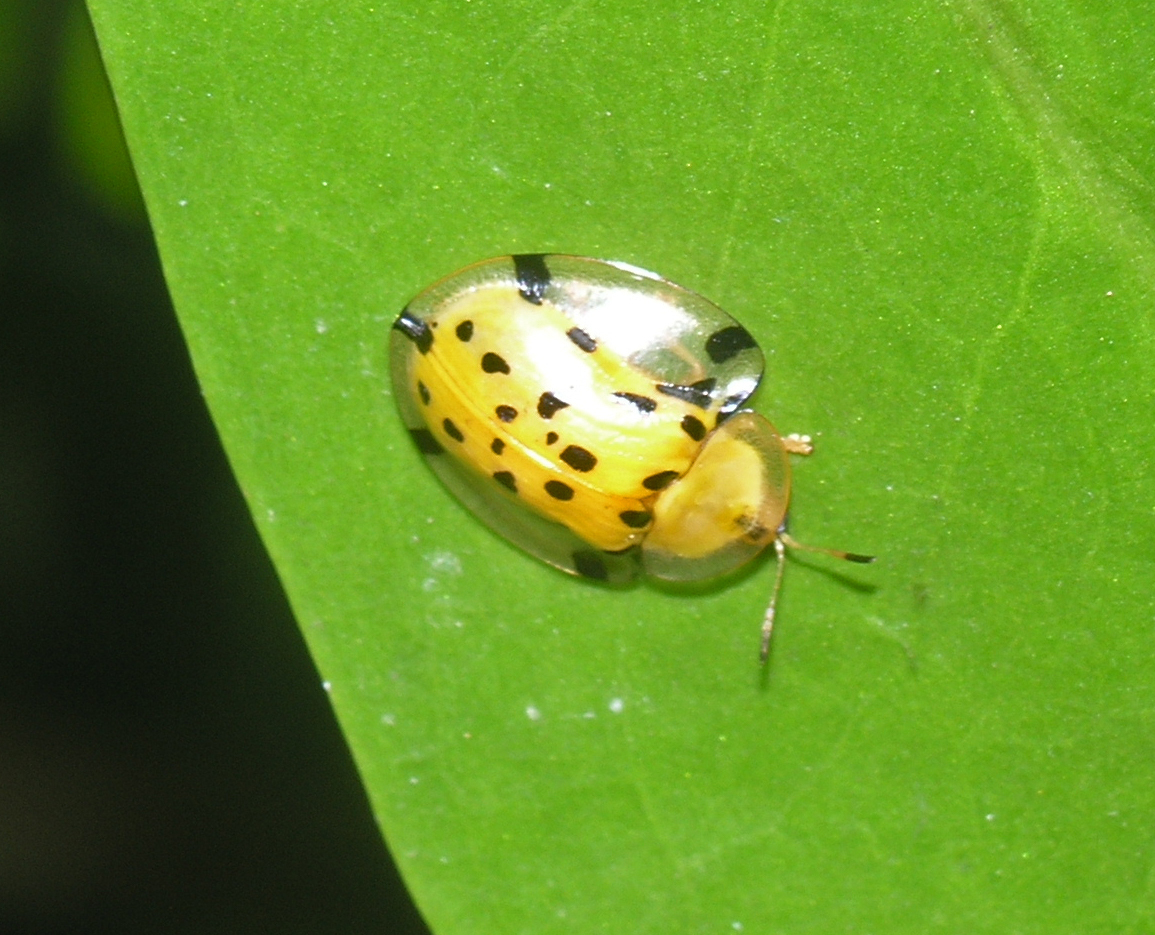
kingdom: Animalia
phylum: Arthropoda
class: Insecta
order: Coleoptera
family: Chrysomelidae
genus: Aspidimorpha
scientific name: Aspidimorpha miliaris
